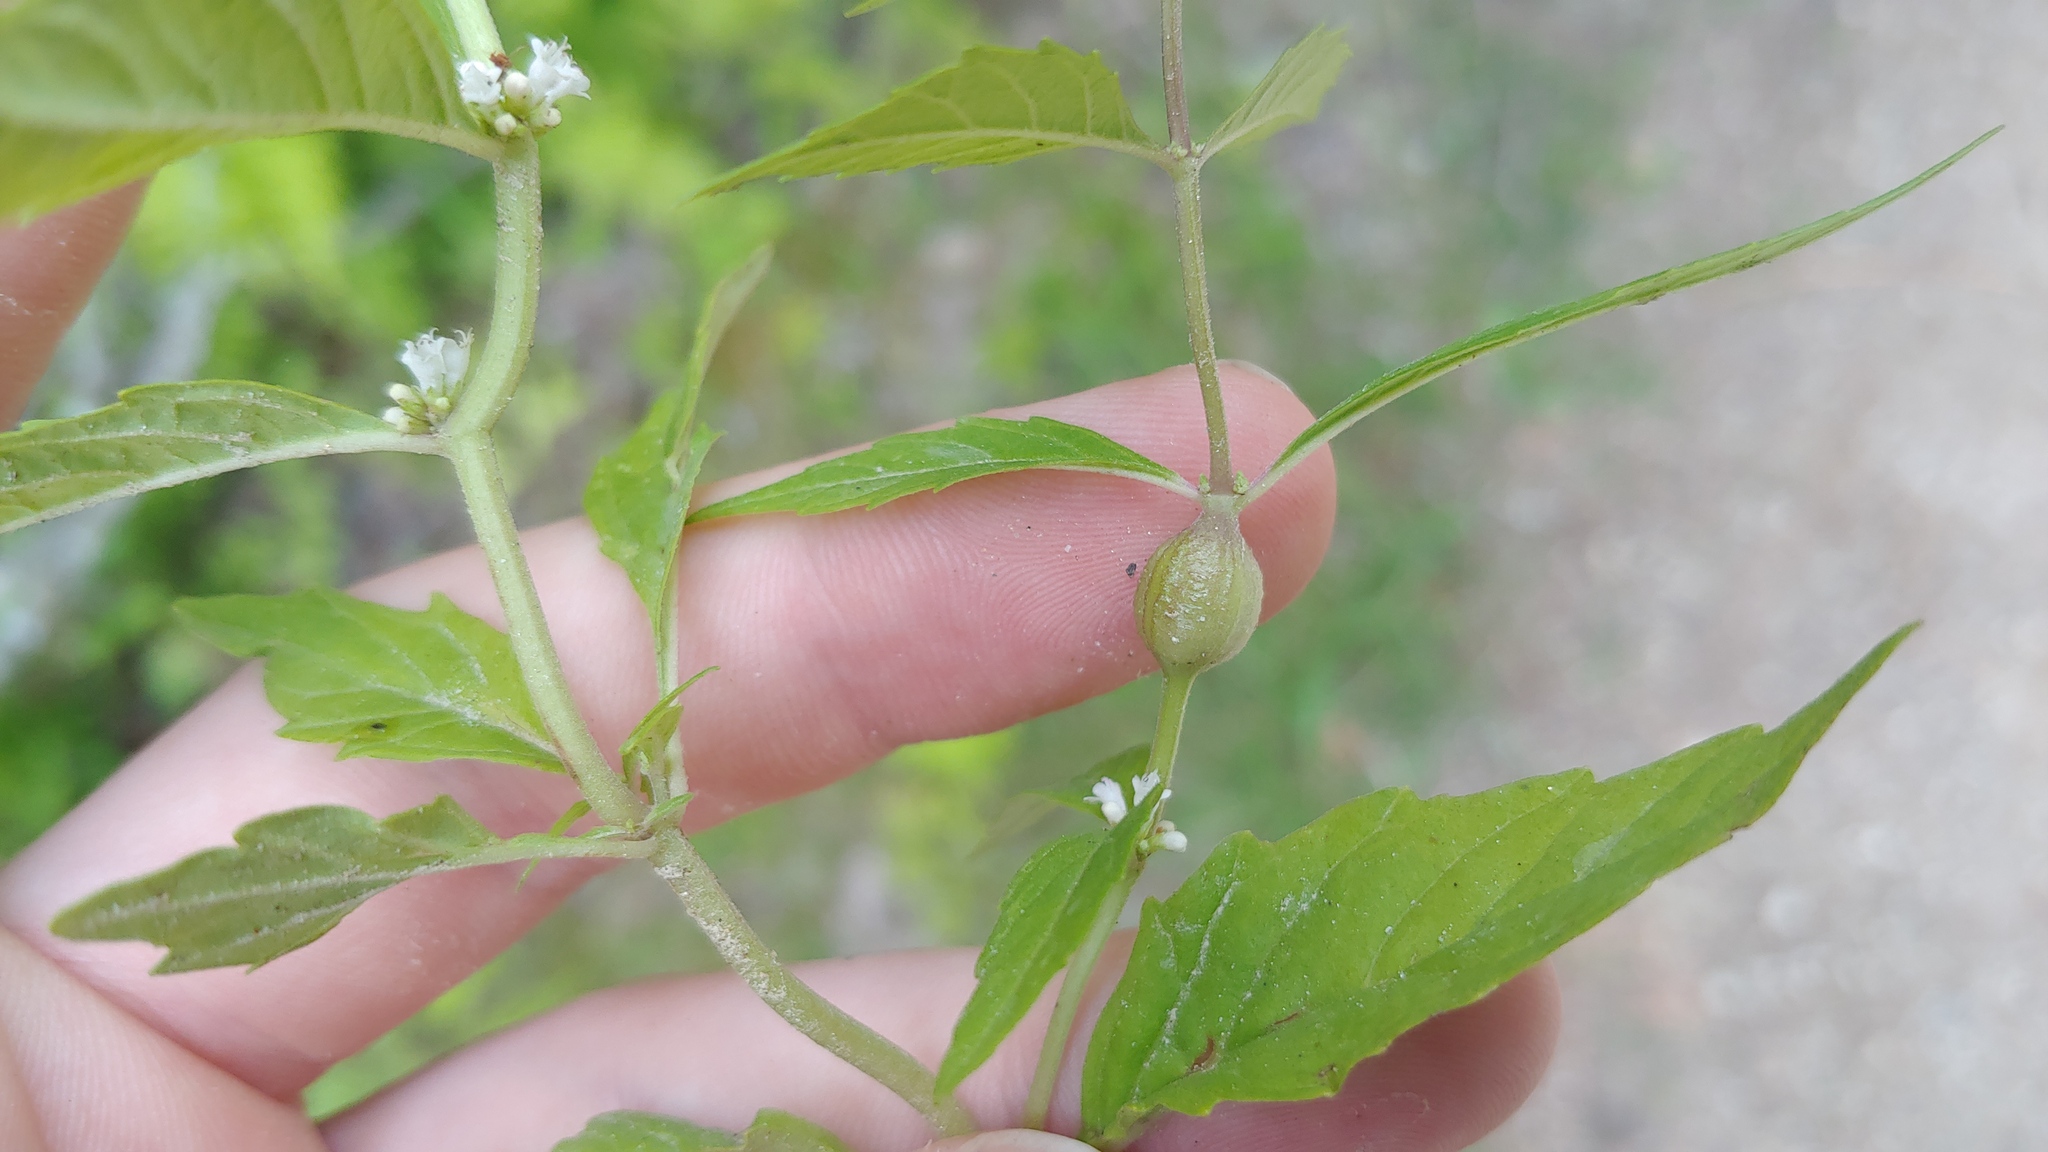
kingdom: Animalia
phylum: Arthropoda
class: Insecta
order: Diptera
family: Cecidomyiidae
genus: Neolasioptera
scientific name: Neolasioptera lycopi
